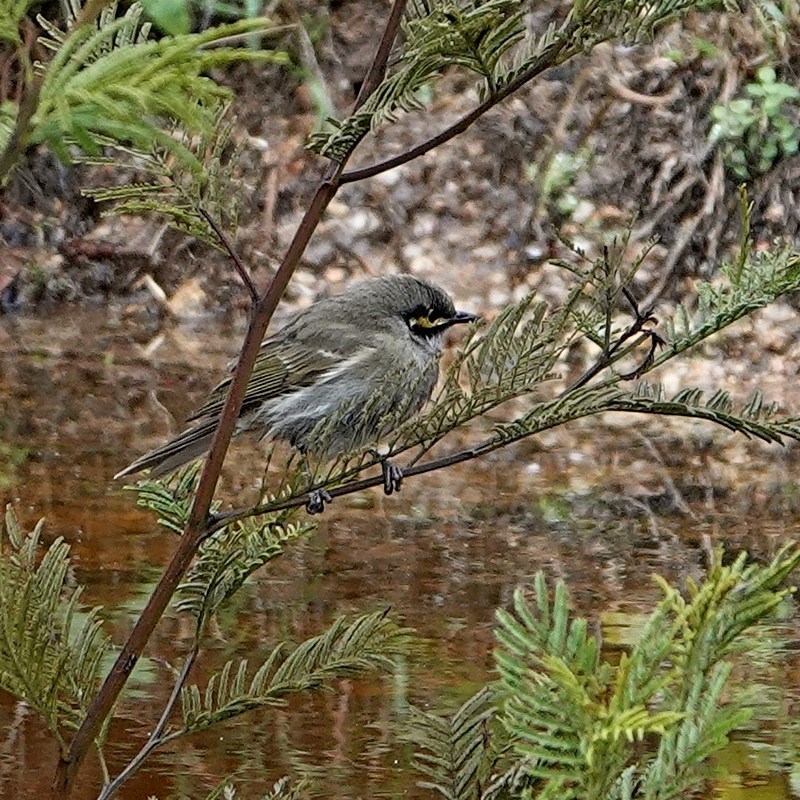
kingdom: Animalia
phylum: Chordata
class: Aves
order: Passeriformes
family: Meliphagidae
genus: Caligavis
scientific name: Caligavis chrysops
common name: Yellow-faced honeyeater
